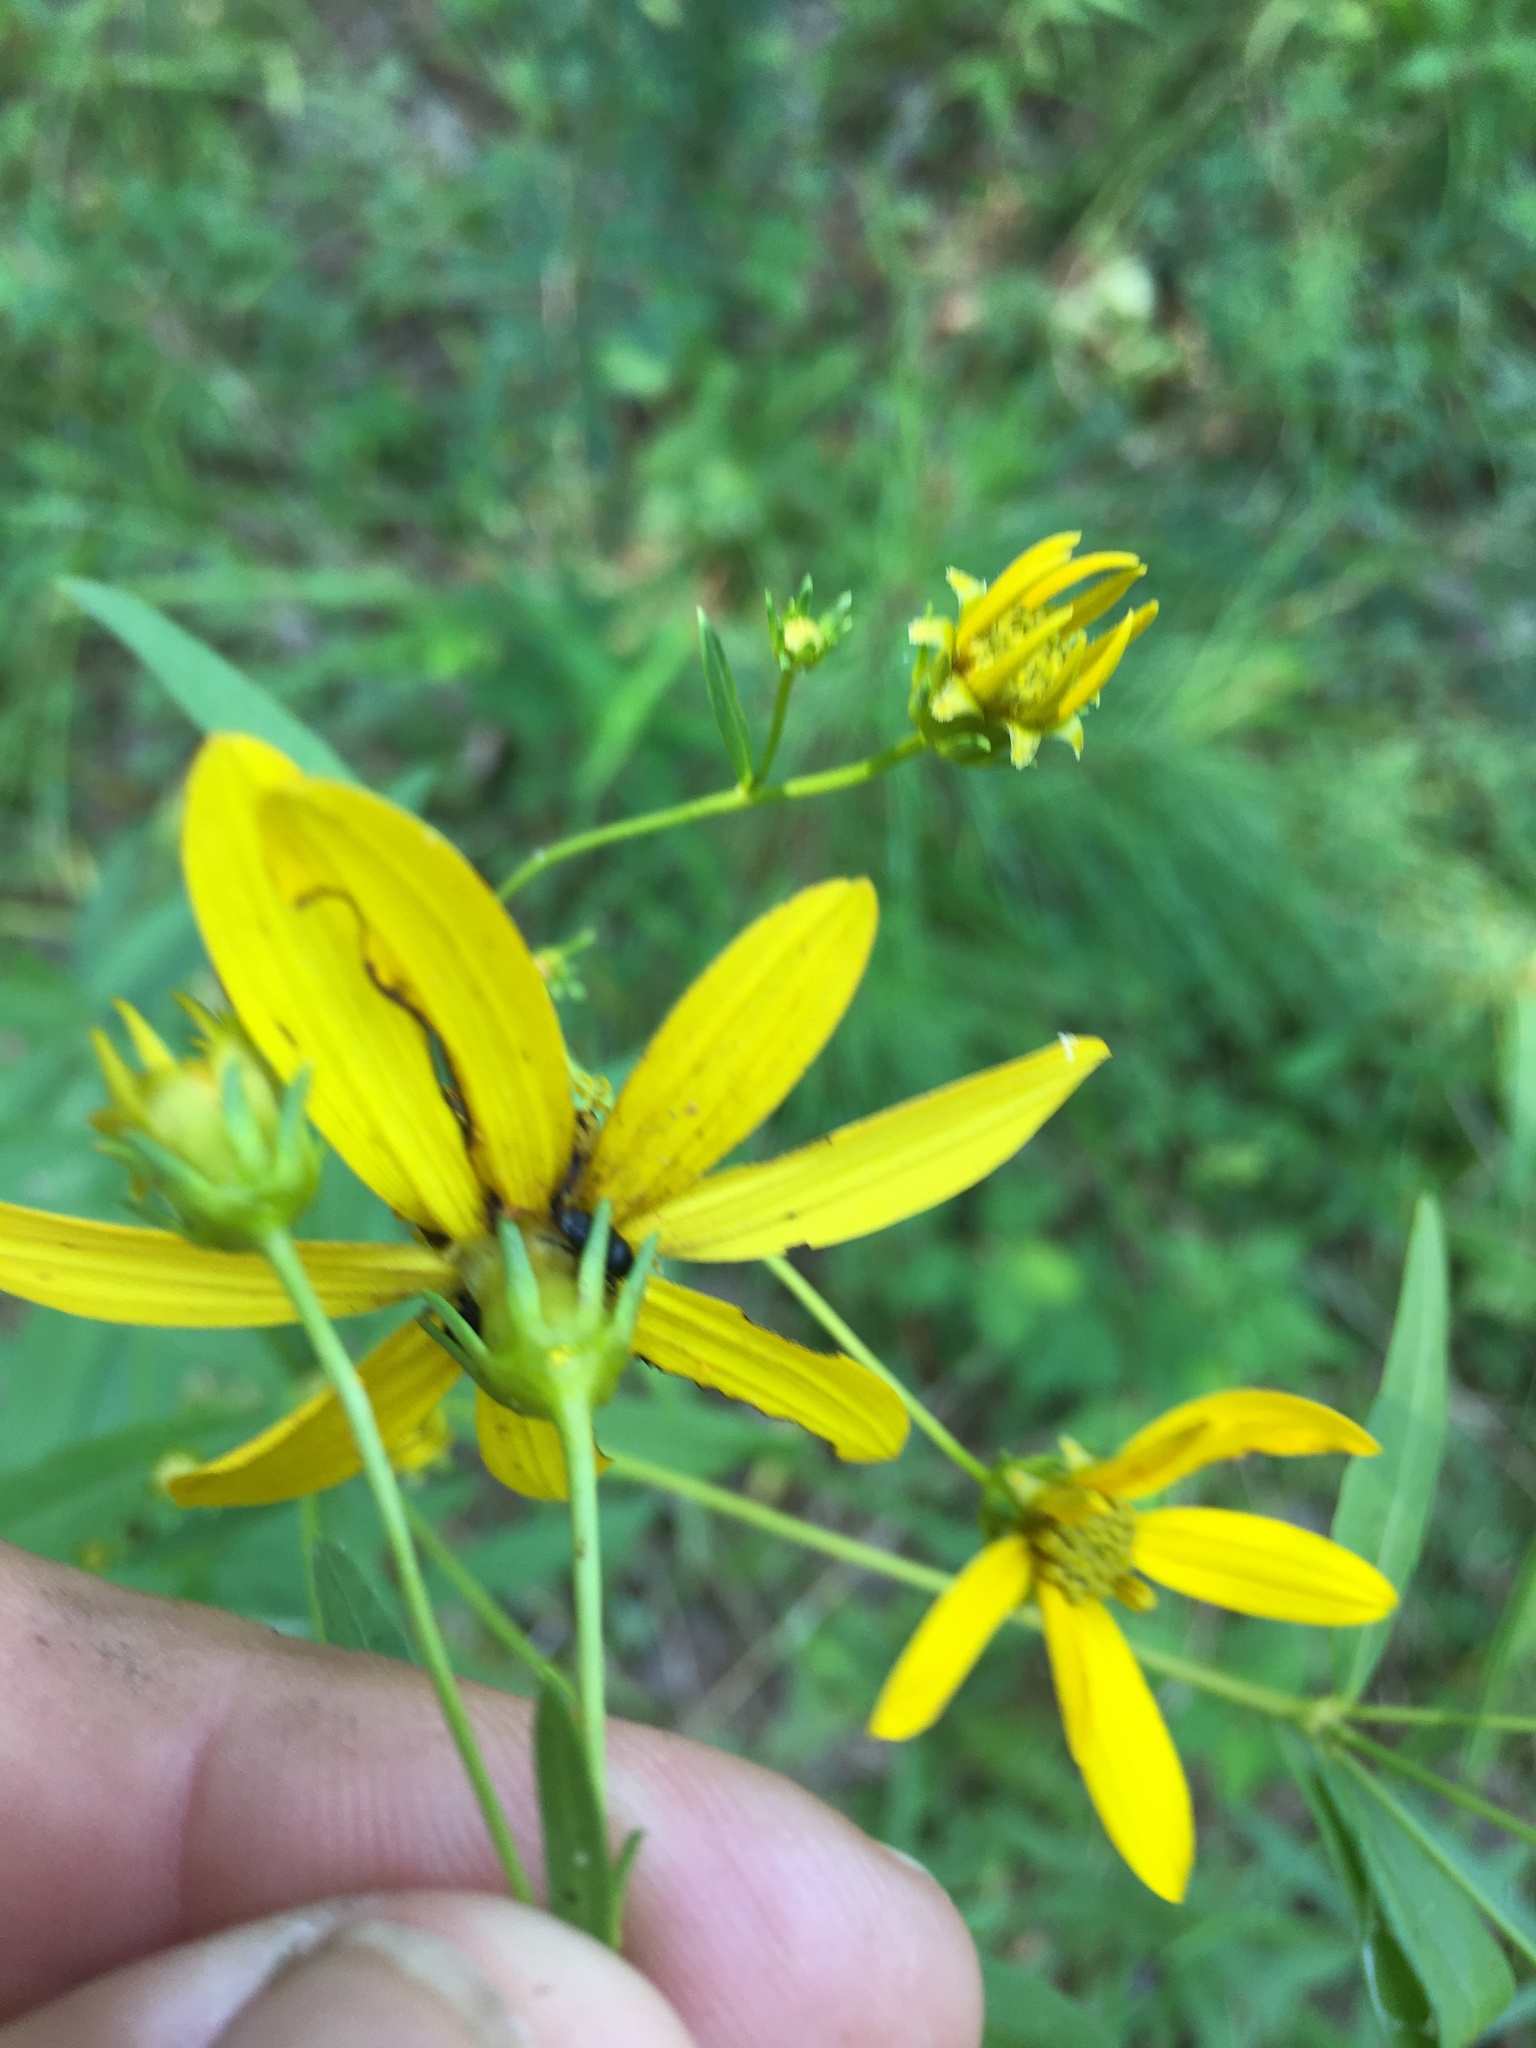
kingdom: Plantae
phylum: Tracheophyta
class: Magnoliopsida
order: Asterales
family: Asteraceae
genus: Coreopsis
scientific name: Coreopsis major
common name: Forest tickseed
